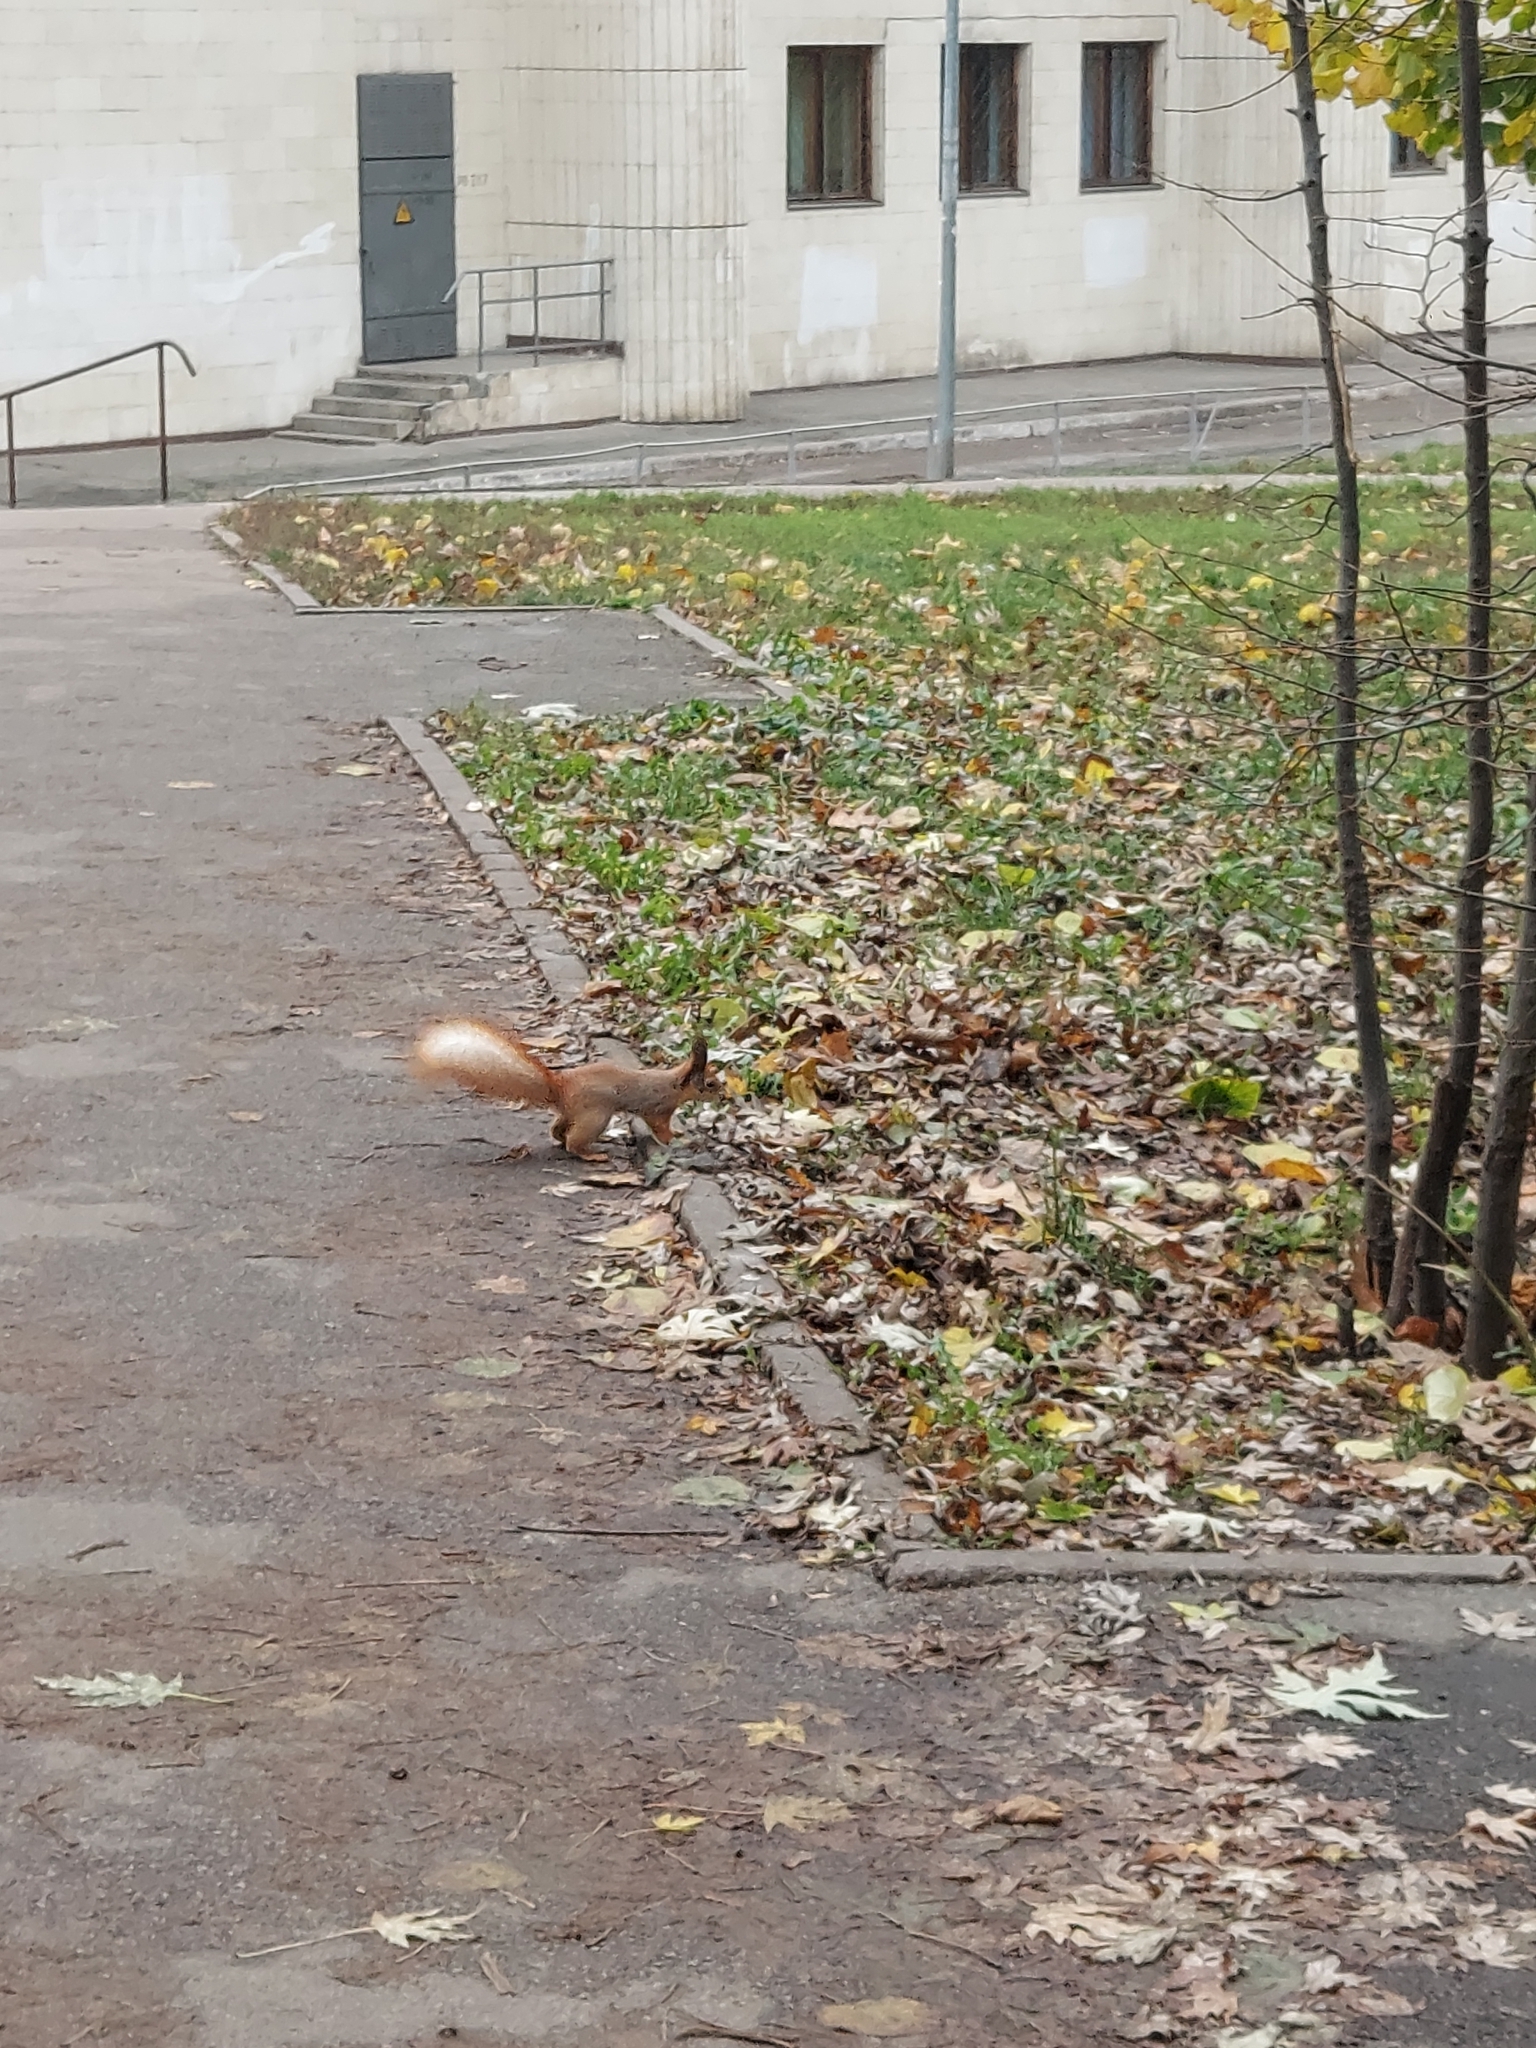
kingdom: Animalia
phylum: Chordata
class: Mammalia
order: Rodentia
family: Sciuridae
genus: Sciurus
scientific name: Sciurus vulgaris
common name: Eurasian red squirrel
